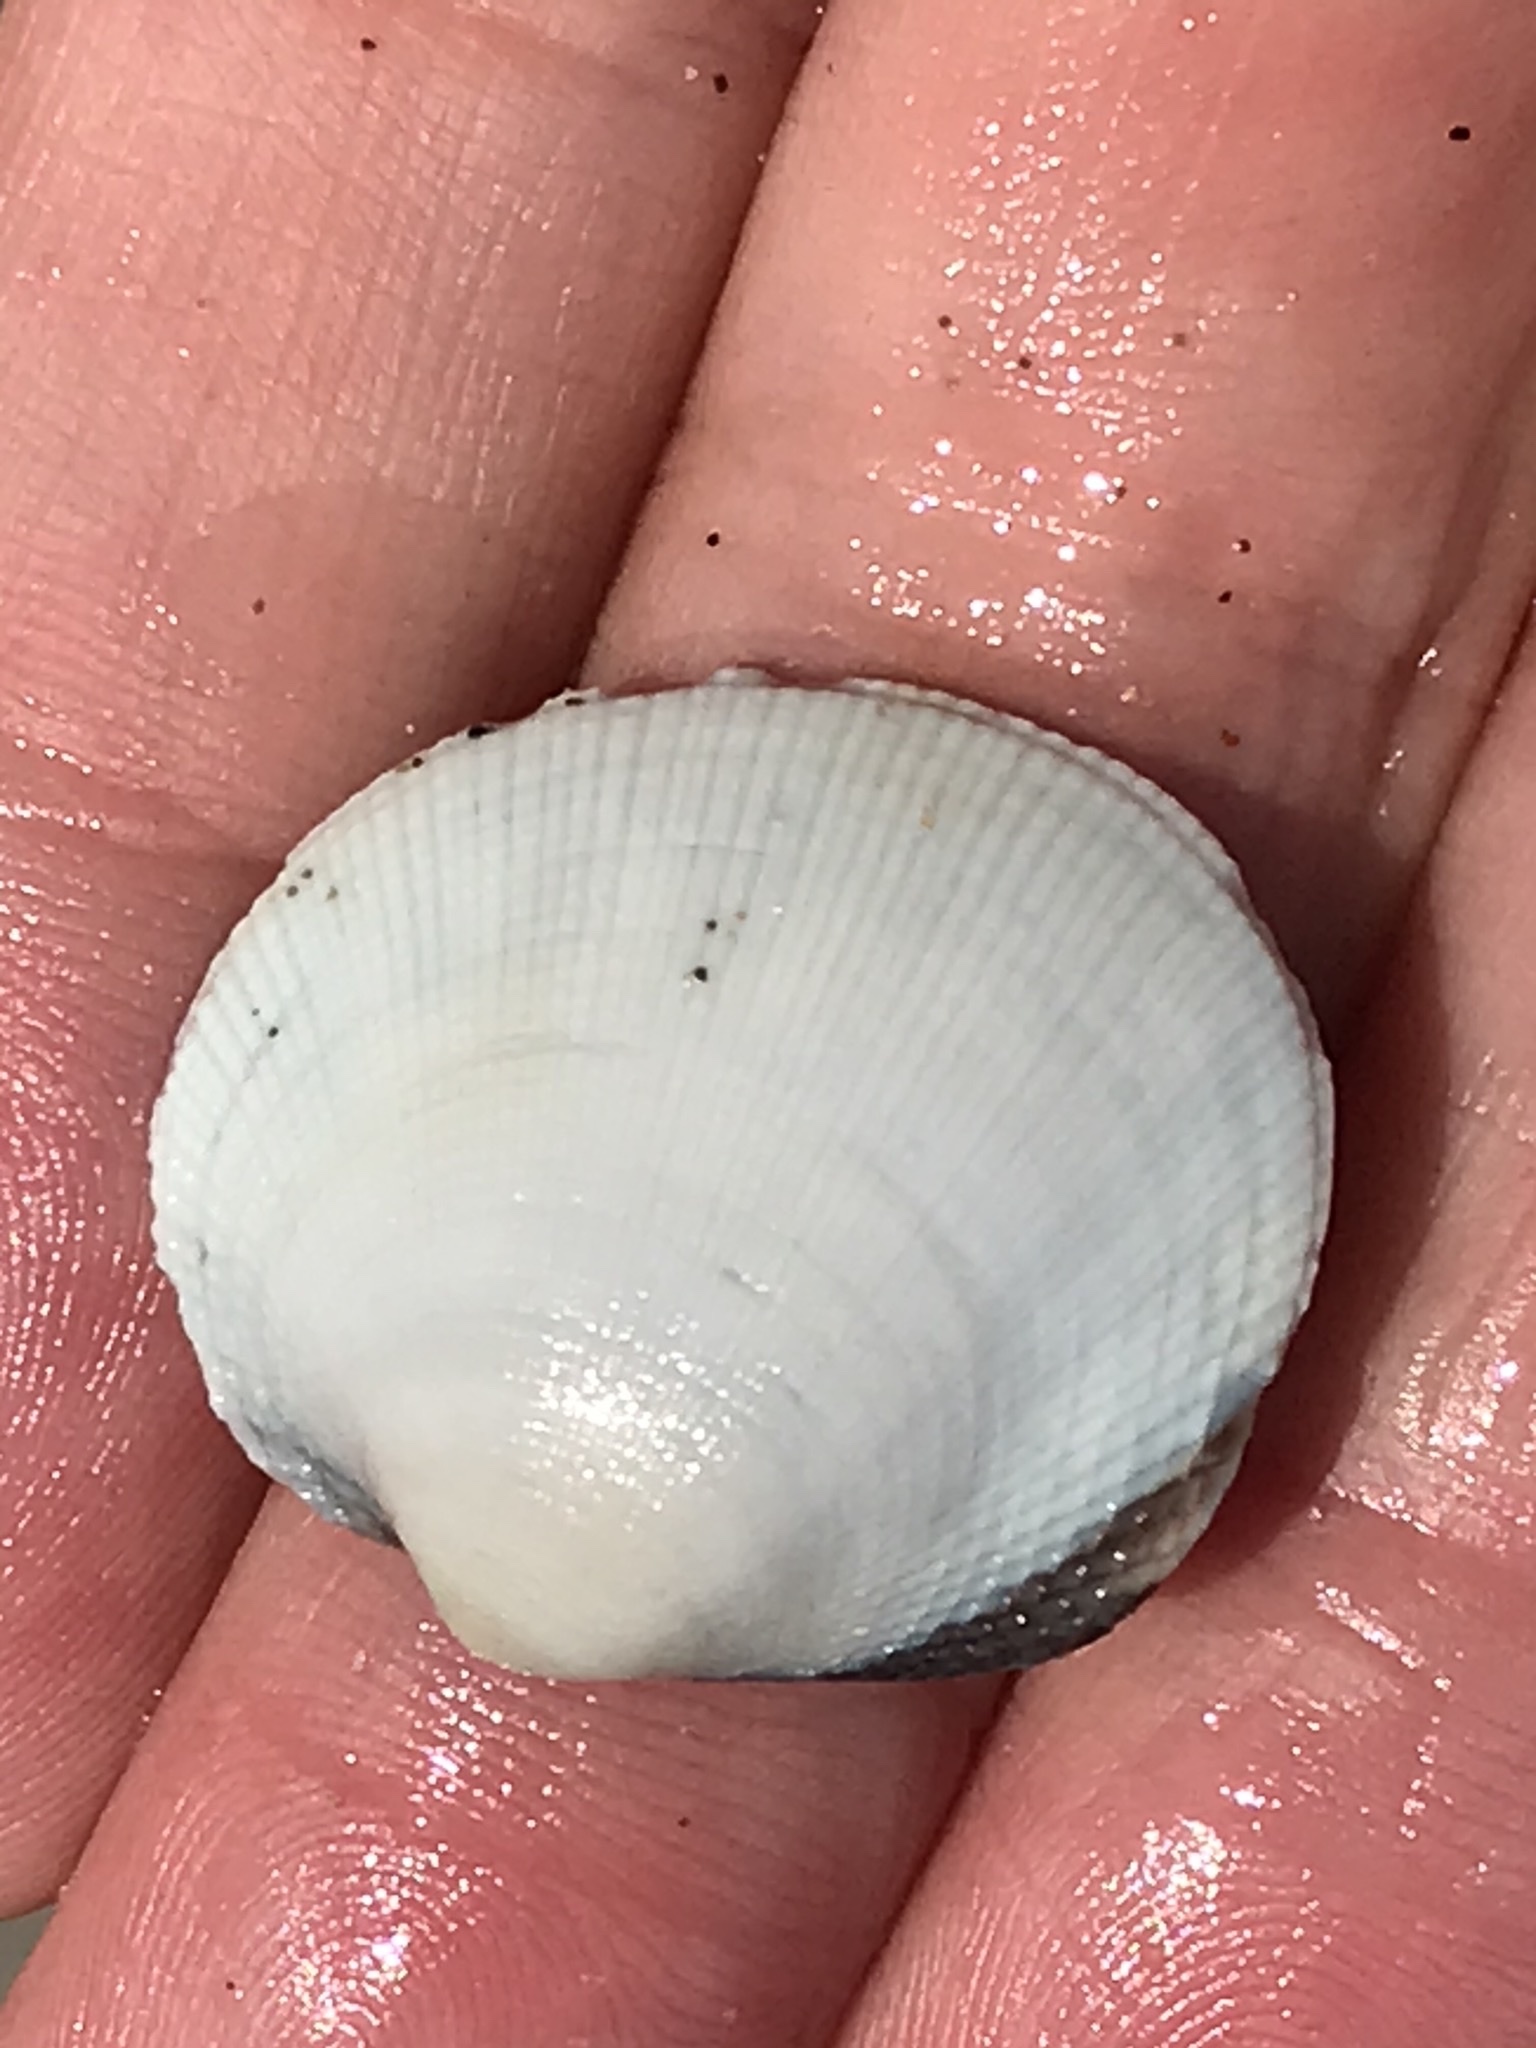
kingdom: Animalia
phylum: Mollusca
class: Bivalvia
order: Venerida
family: Veneridae
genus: Leukoma
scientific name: Leukoma staminea
